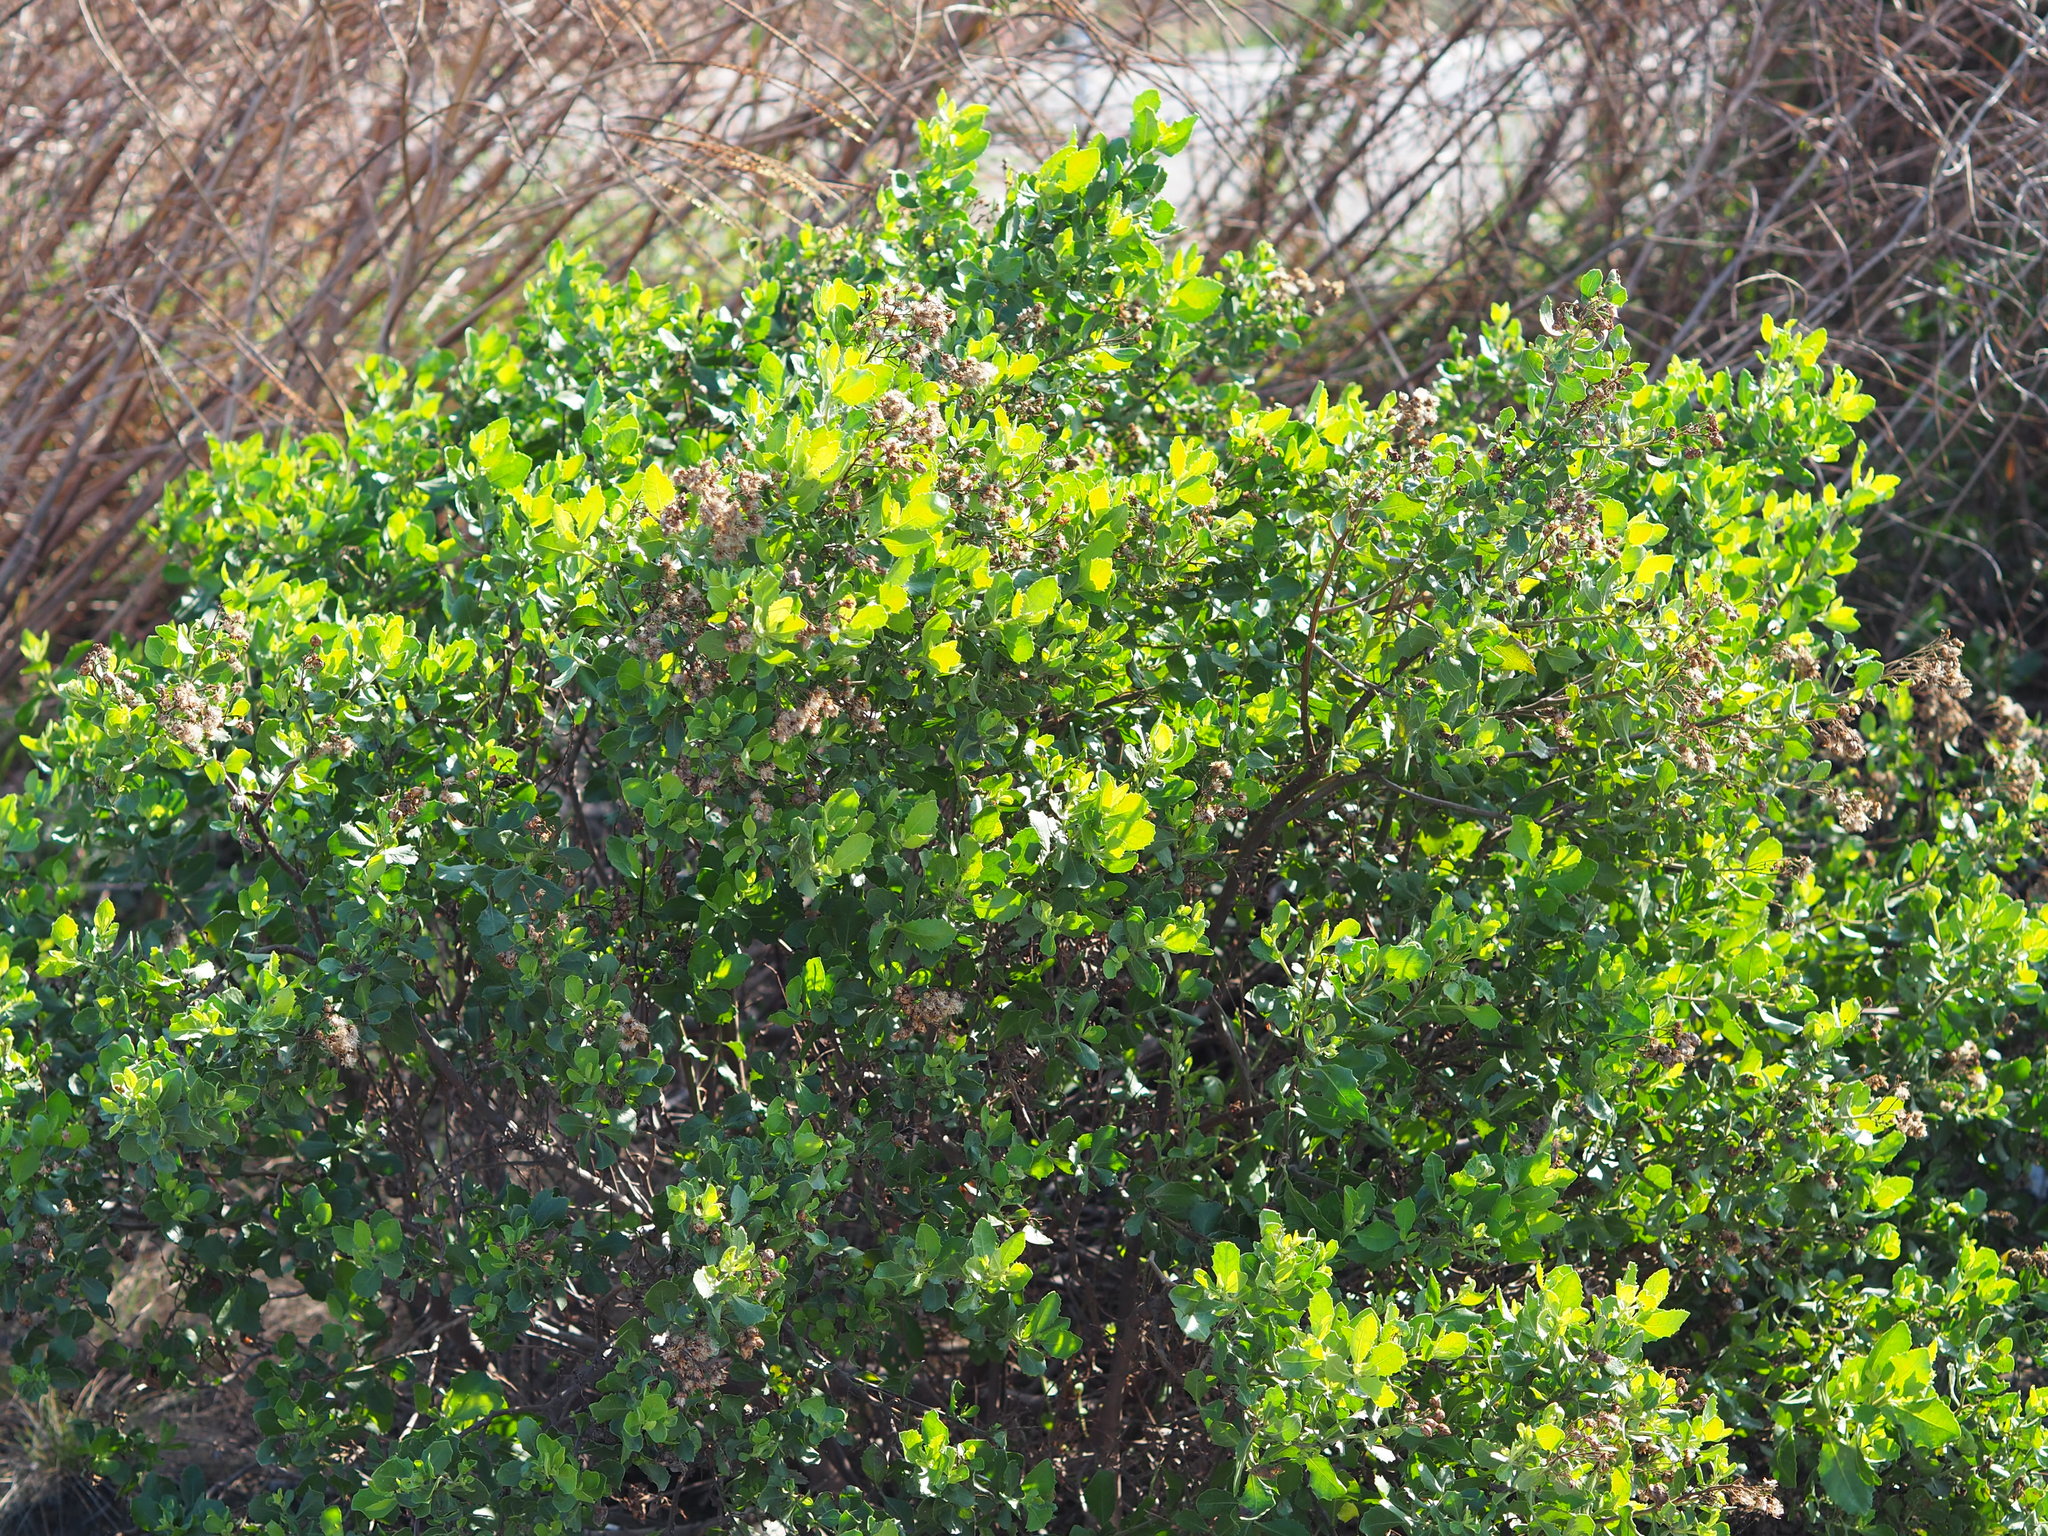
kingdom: Plantae
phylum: Tracheophyta
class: Magnoliopsida
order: Asterales
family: Asteraceae
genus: Pluchea
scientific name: Pluchea indica
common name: Indian fleabane
